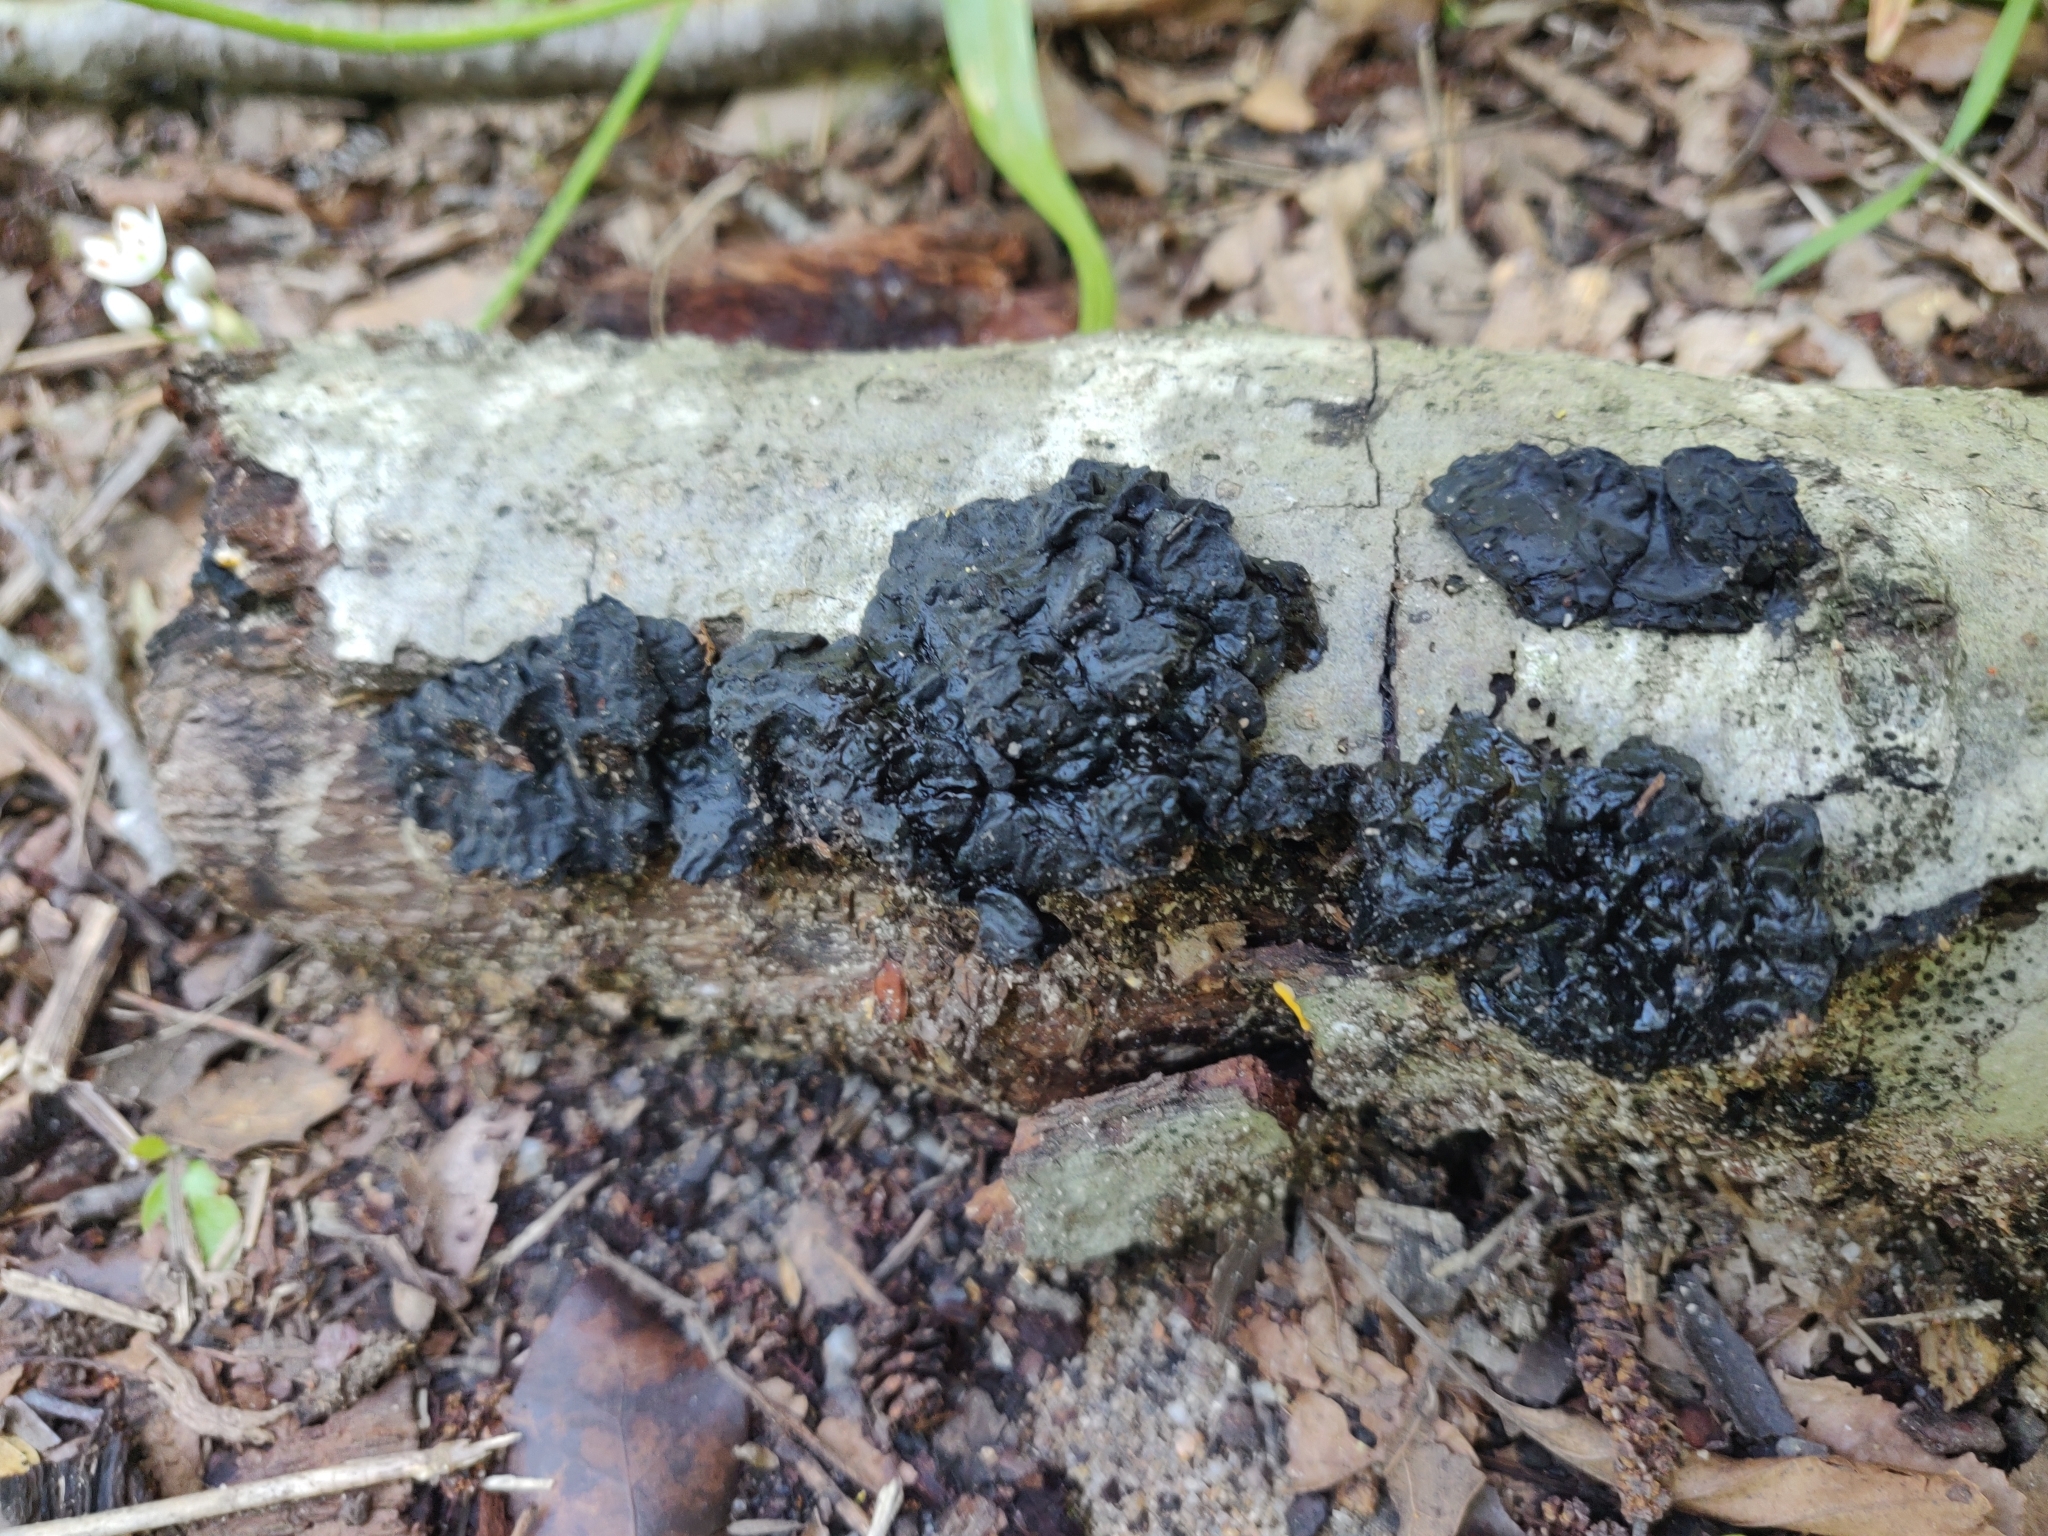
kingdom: Fungi
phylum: Basidiomycota
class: Agaricomycetes
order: Auriculariales
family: Auriculariaceae
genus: Exidia
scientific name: Exidia nigricans
